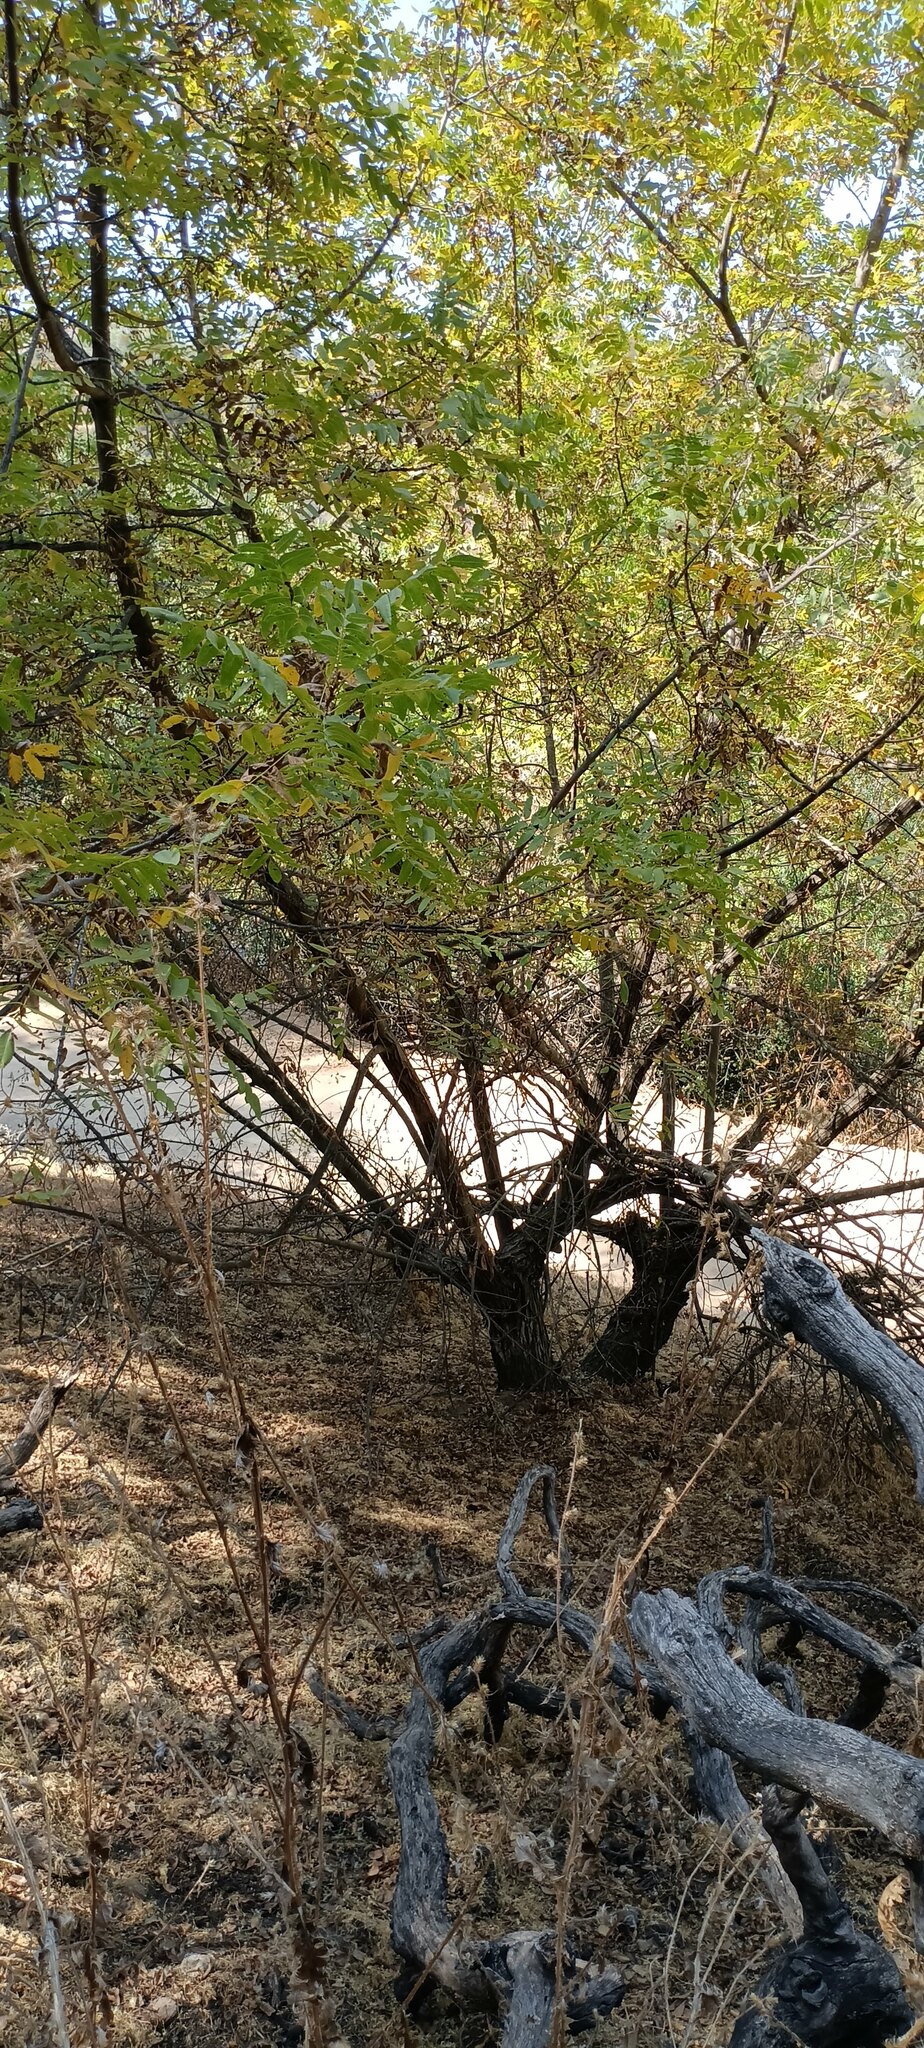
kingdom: Plantae
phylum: Tracheophyta
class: Magnoliopsida
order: Fagales
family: Juglandaceae
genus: Juglans
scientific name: Juglans californica
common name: Southern california black walnut
